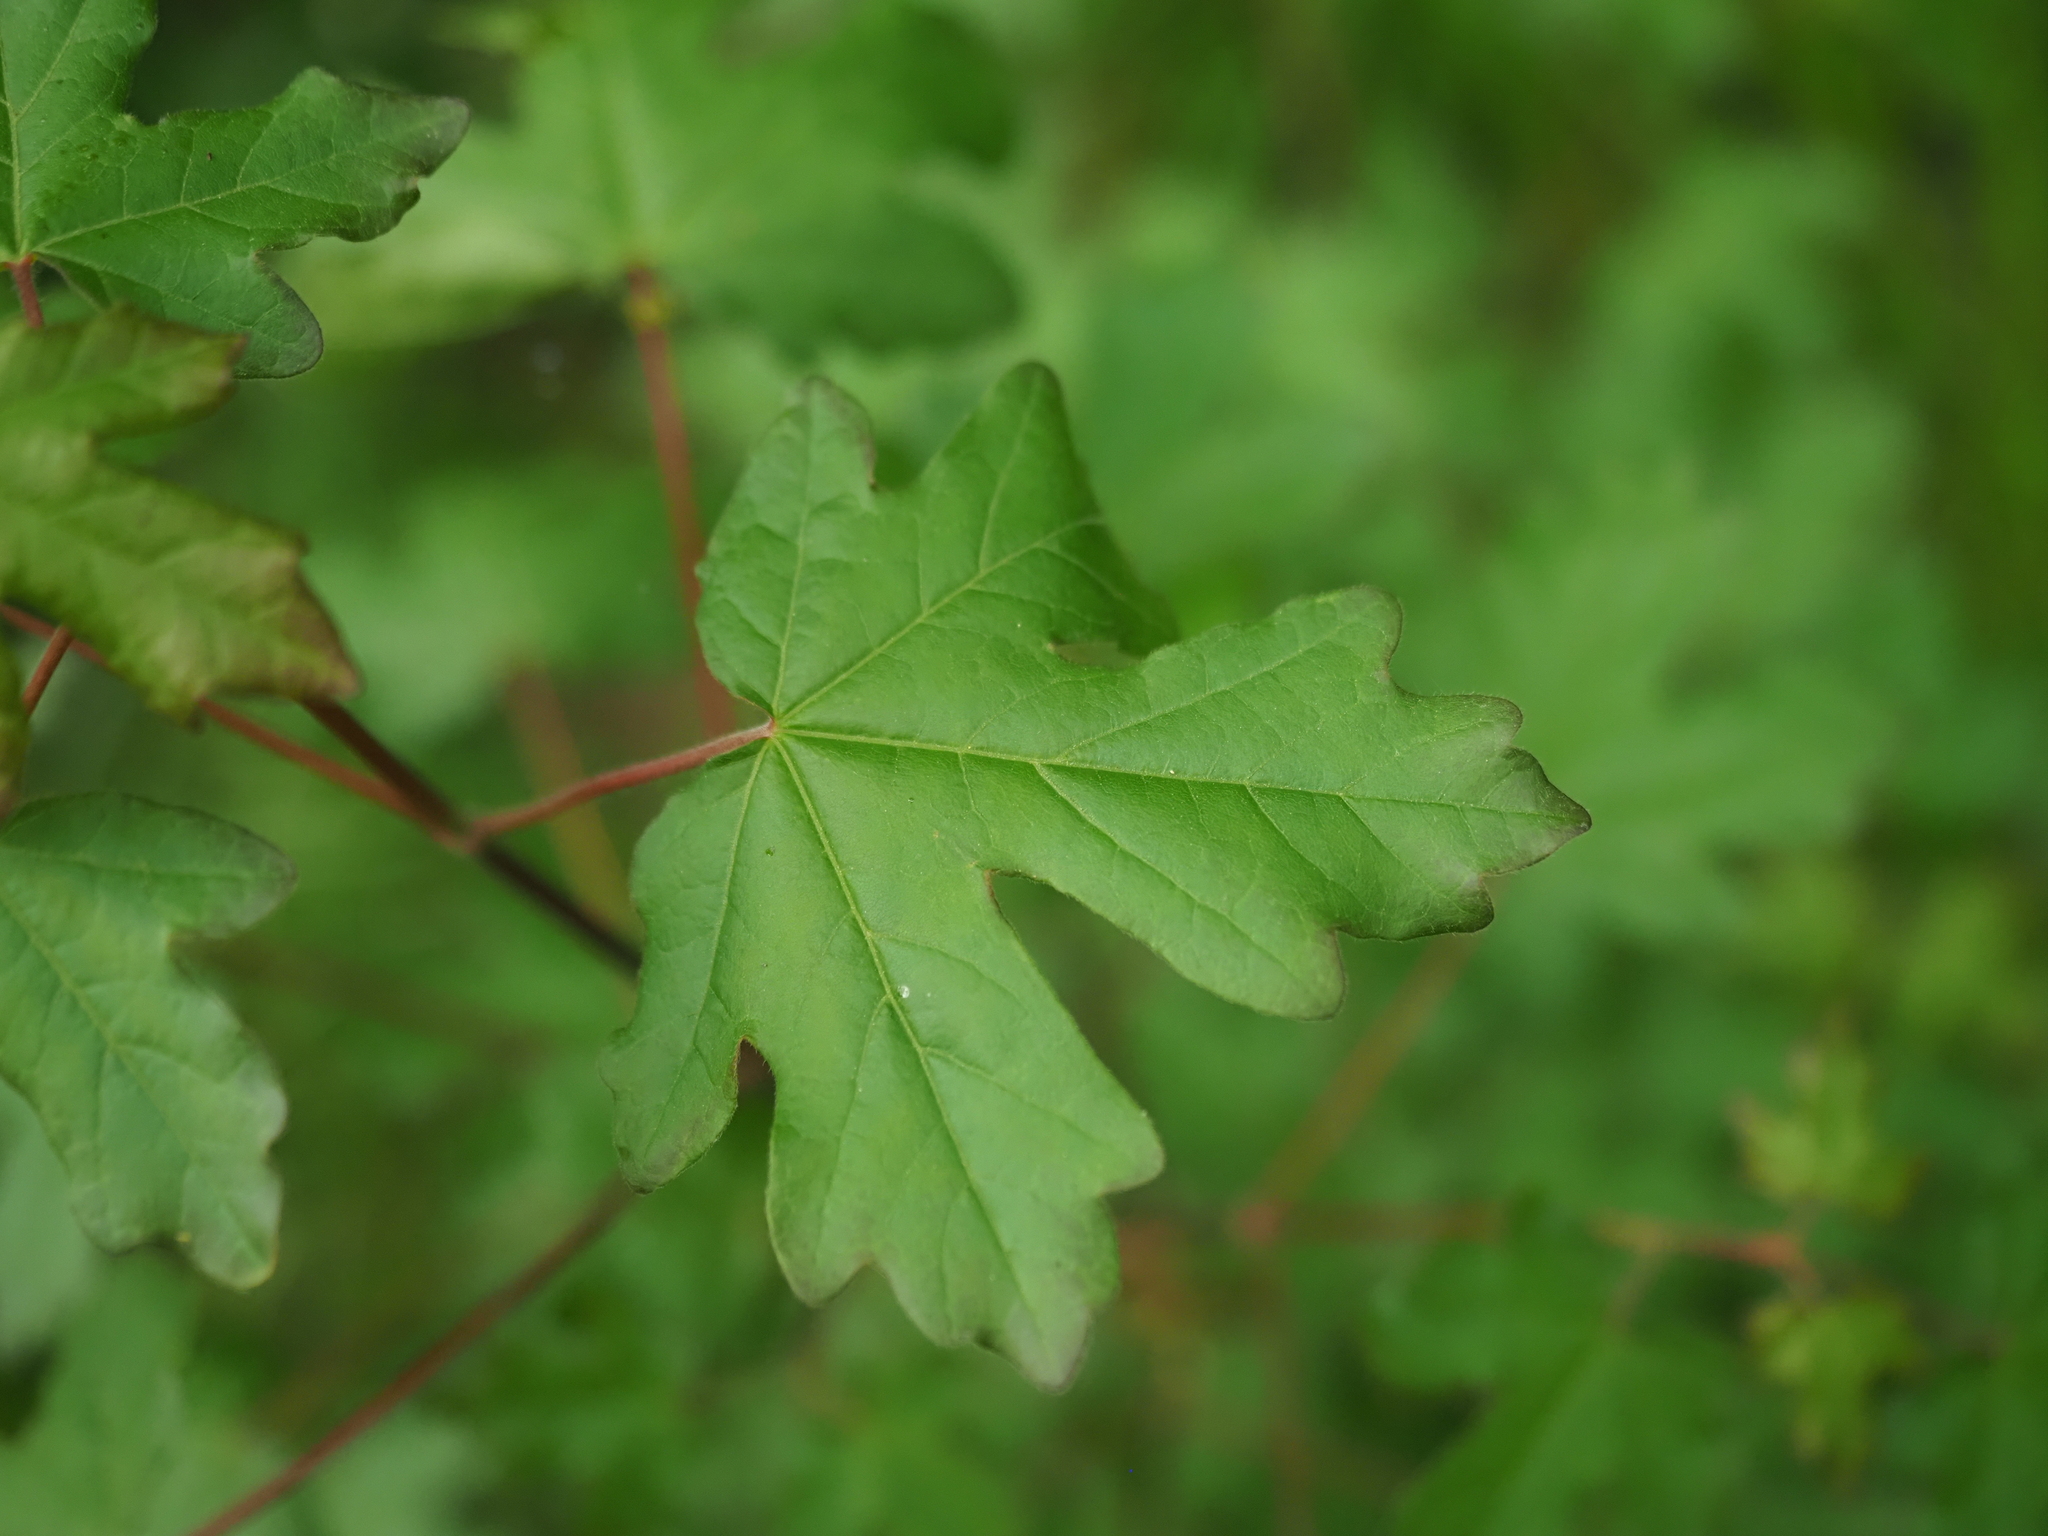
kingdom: Plantae
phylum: Tracheophyta
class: Magnoliopsida
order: Sapindales
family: Sapindaceae
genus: Acer
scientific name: Acer campestre
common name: Field maple
